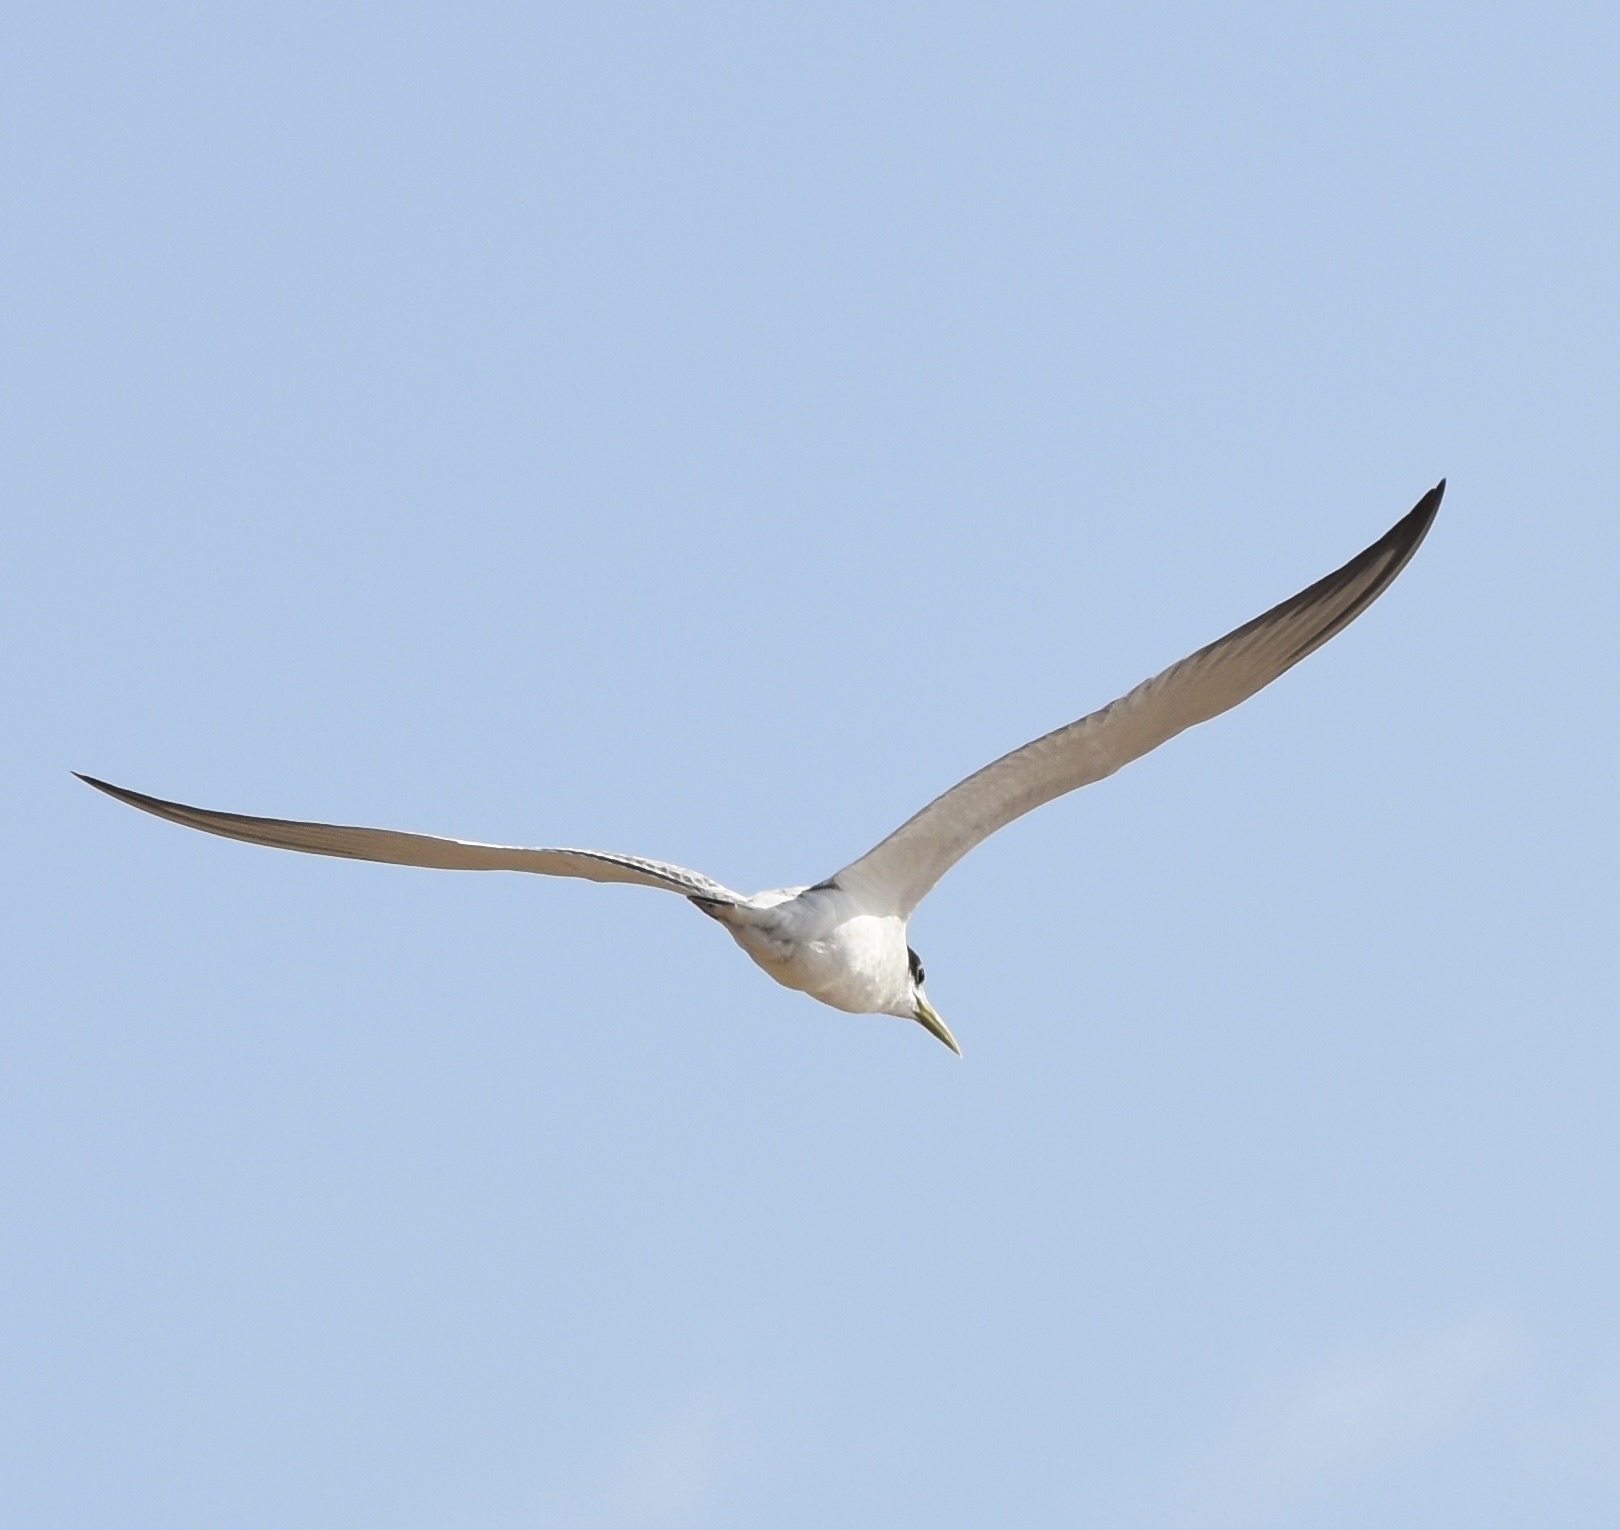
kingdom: Animalia
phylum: Chordata
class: Aves
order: Charadriiformes
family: Laridae
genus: Thalasseus
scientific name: Thalasseus bergii
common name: Greater crested tern
